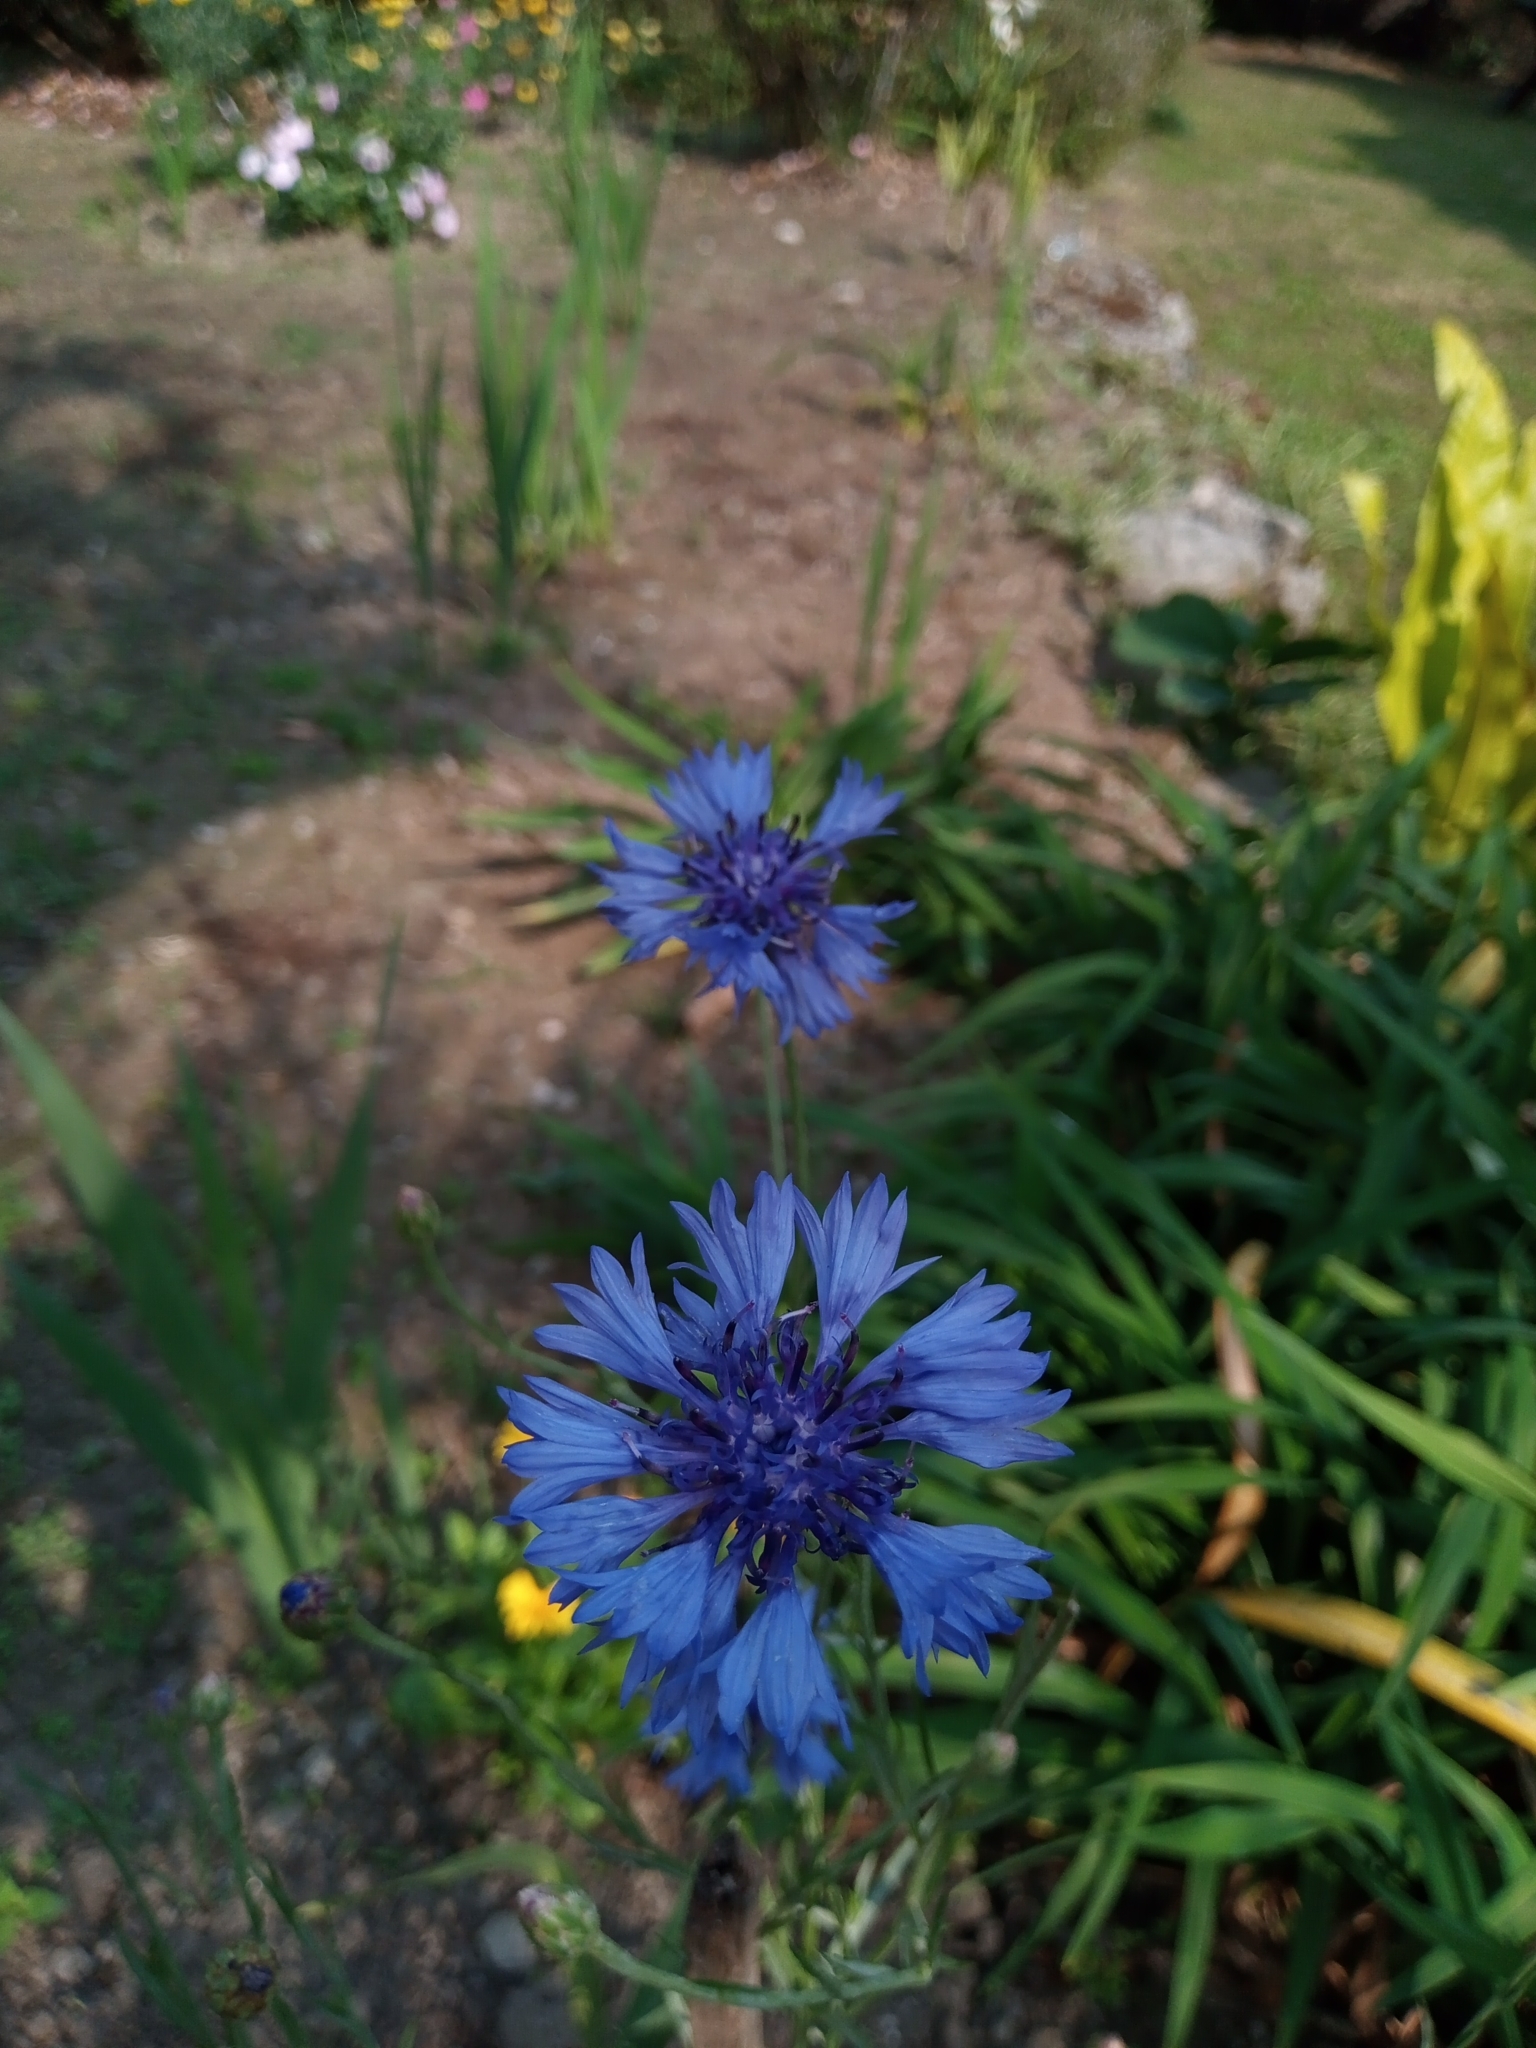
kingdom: Plantae
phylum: Tracheophyta
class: Magnoliopsida
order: Asterales
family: Asteraceae
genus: Centaurea
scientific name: Centaurea cyanus
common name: Cornflower
